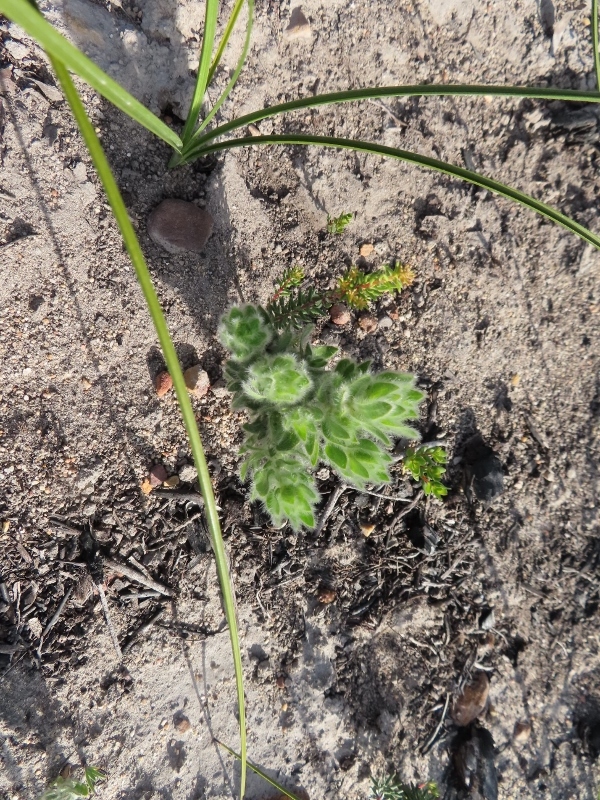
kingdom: Plantae
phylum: Tracheophyta
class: Magnoliopsida
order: Fabales
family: Fabaceae
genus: Xiphotheca
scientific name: Xiphotheca guthriei
